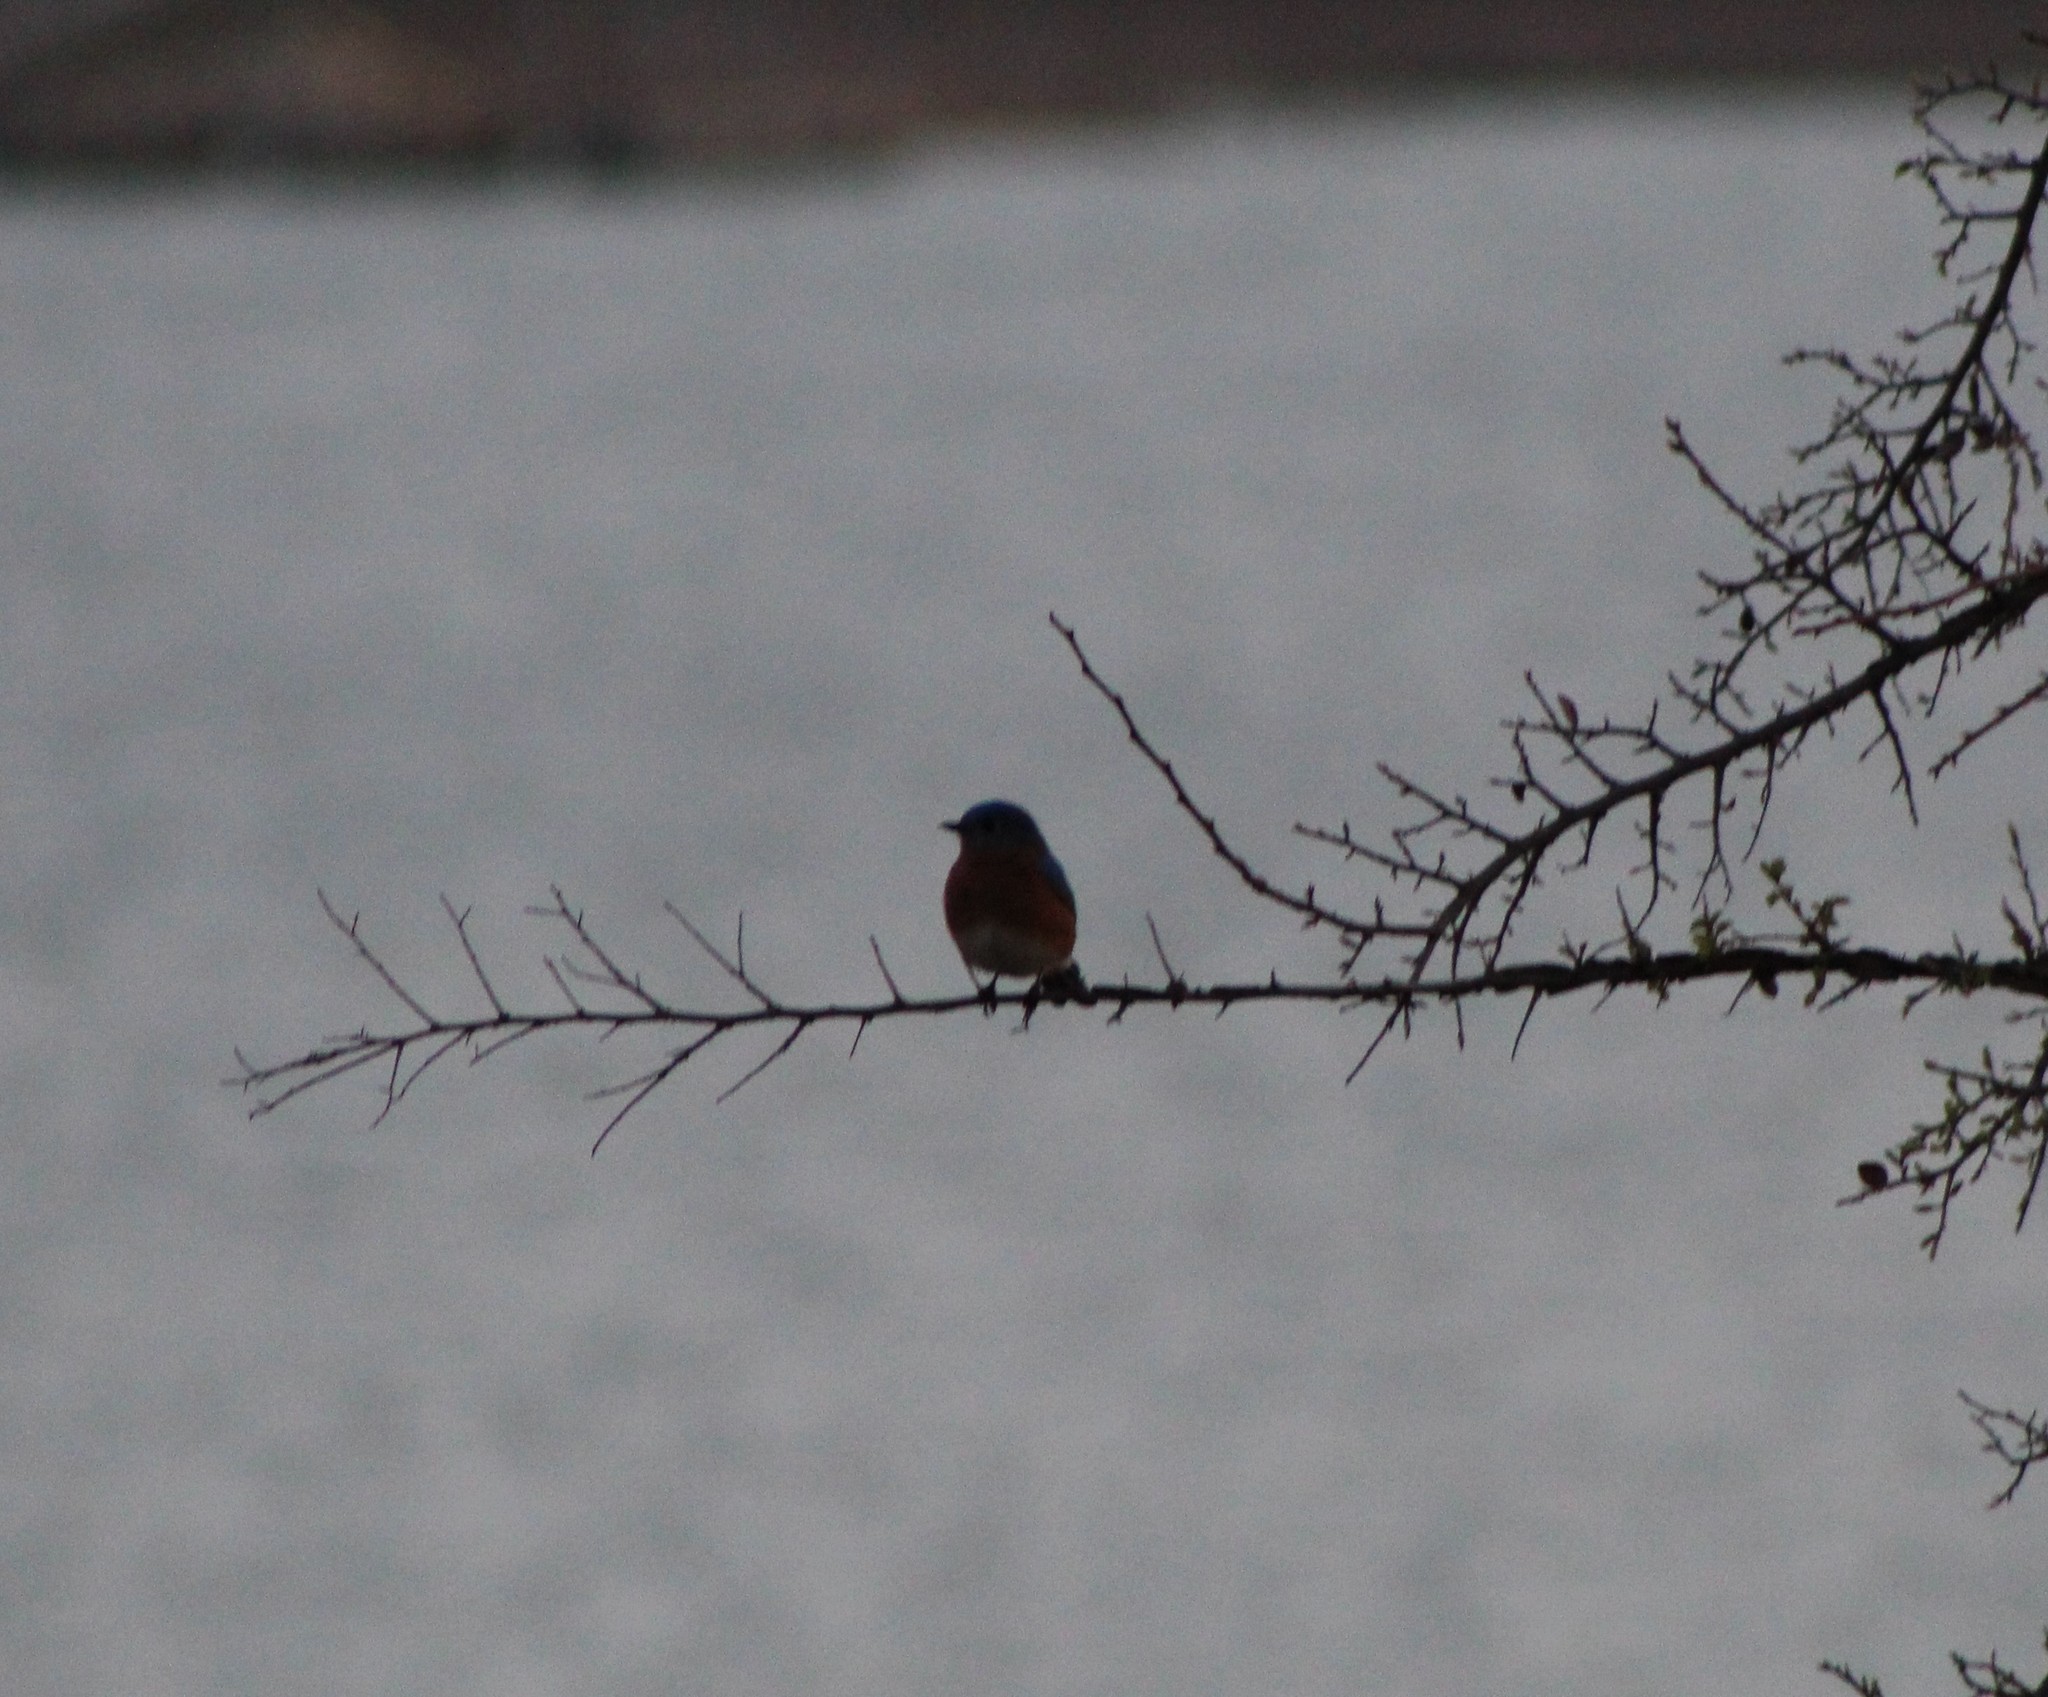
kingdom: Animalia
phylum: Chordata
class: Aves
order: Passeriformes
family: Turdidae
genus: Sialia
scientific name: Sialia sialis
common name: Eastern bluebird
